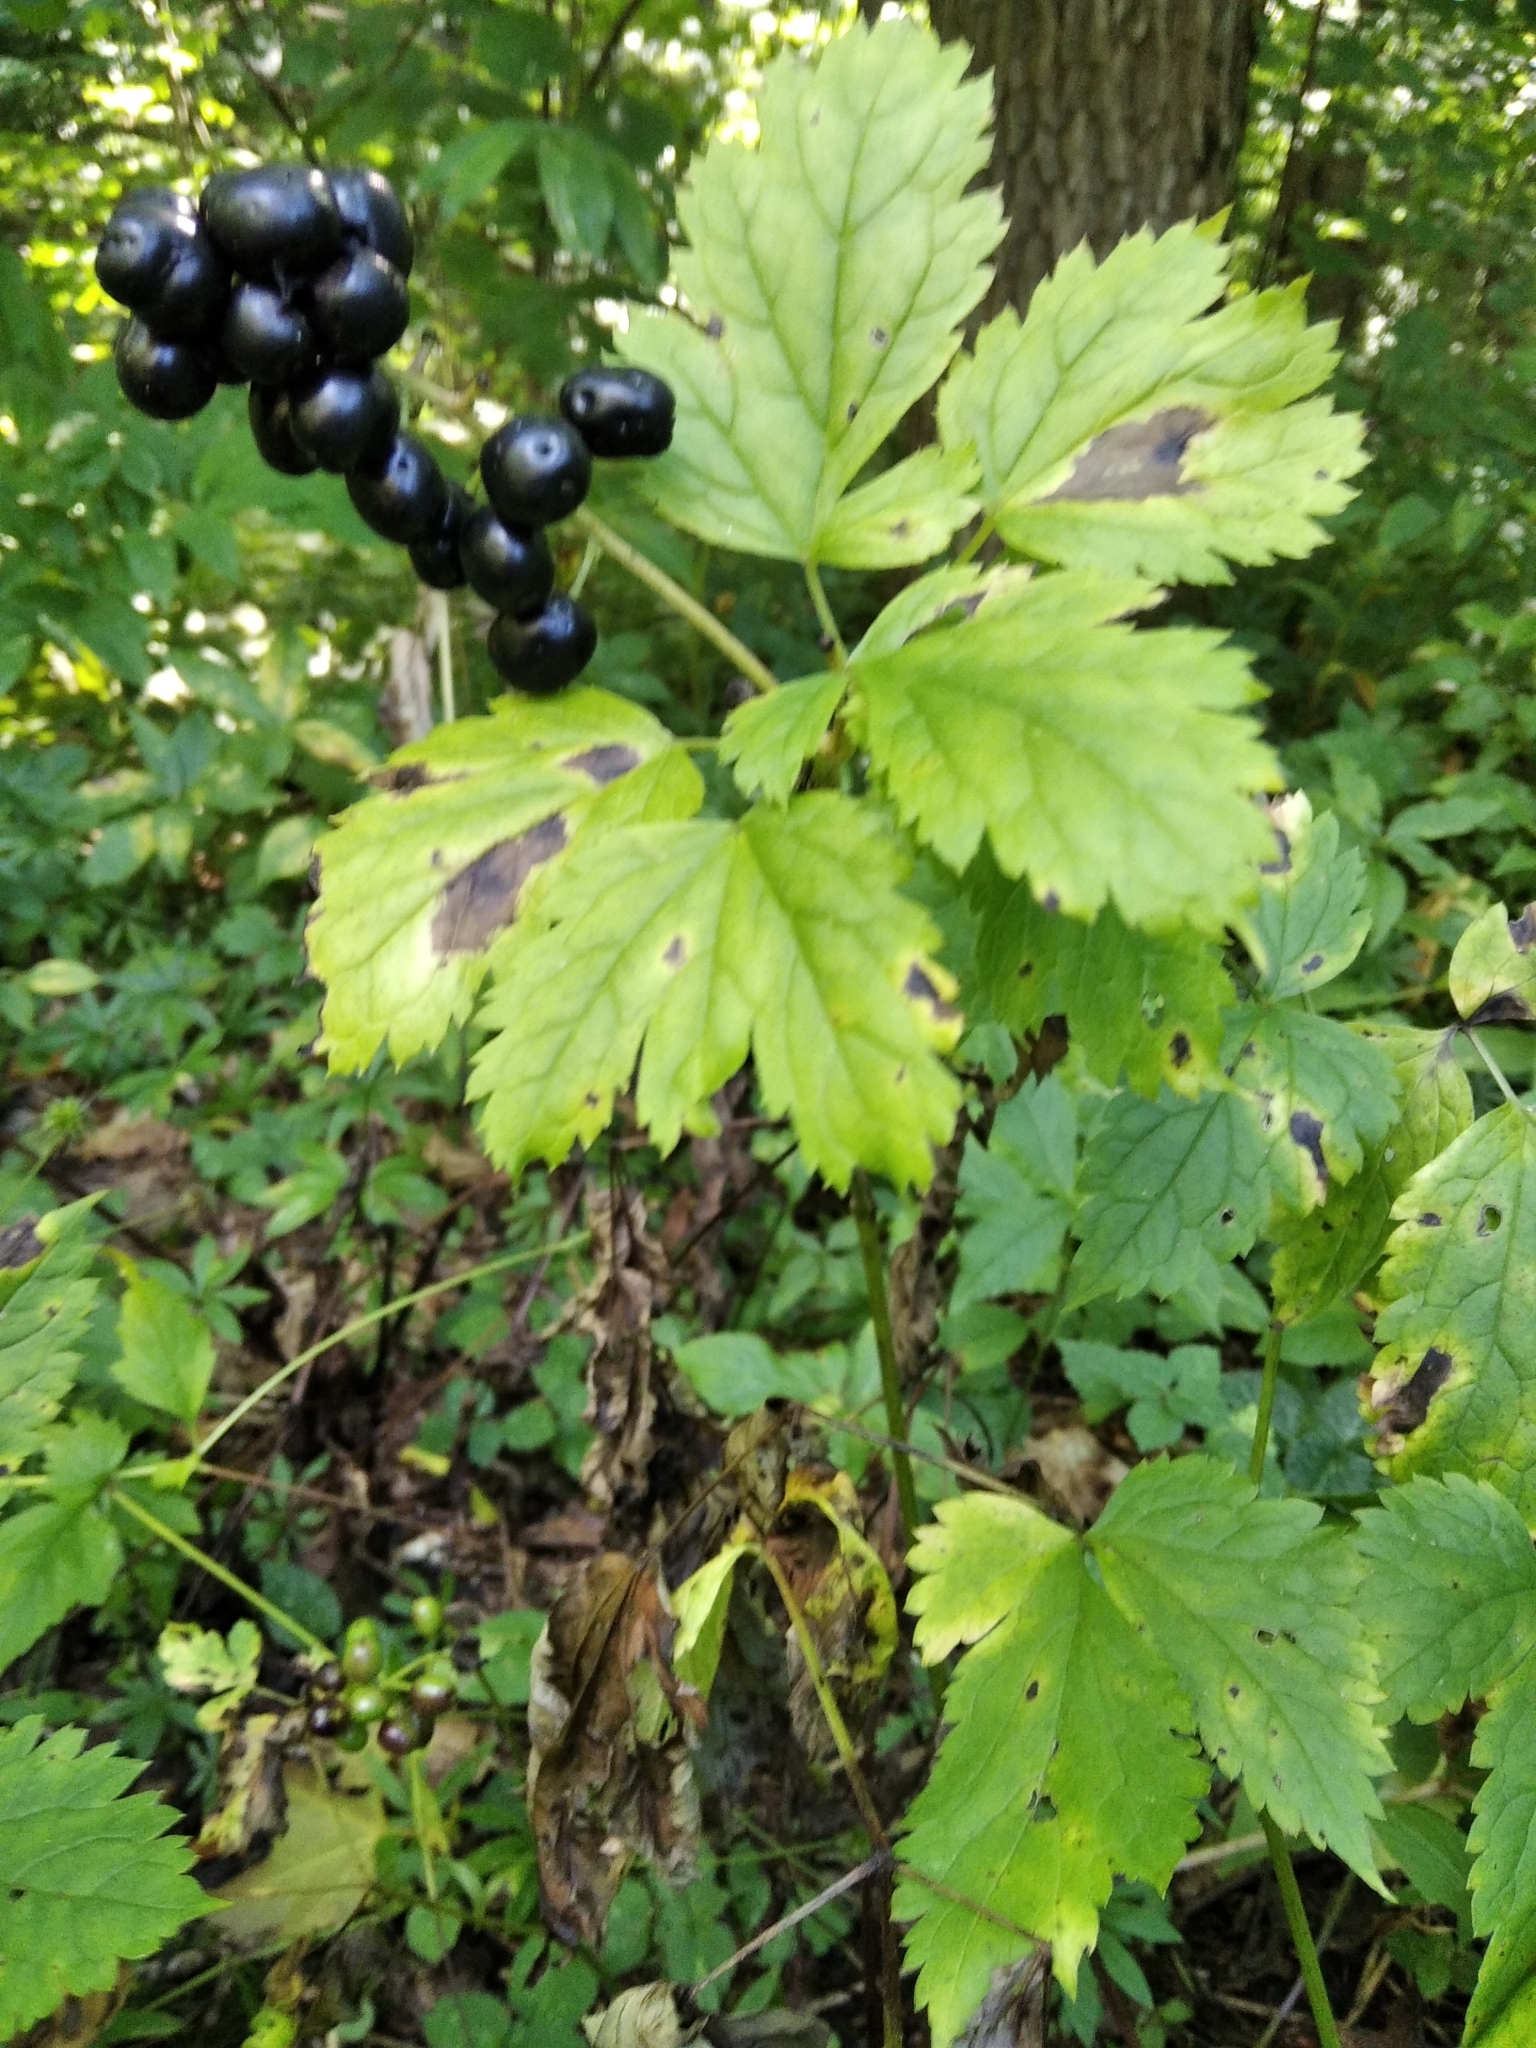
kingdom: Plantae
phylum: Tracheophyta
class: Magnoliopsida
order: Ranunculales
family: Ranunculaceae
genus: Actaea
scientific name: Actaea spicata
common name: Baneberry
